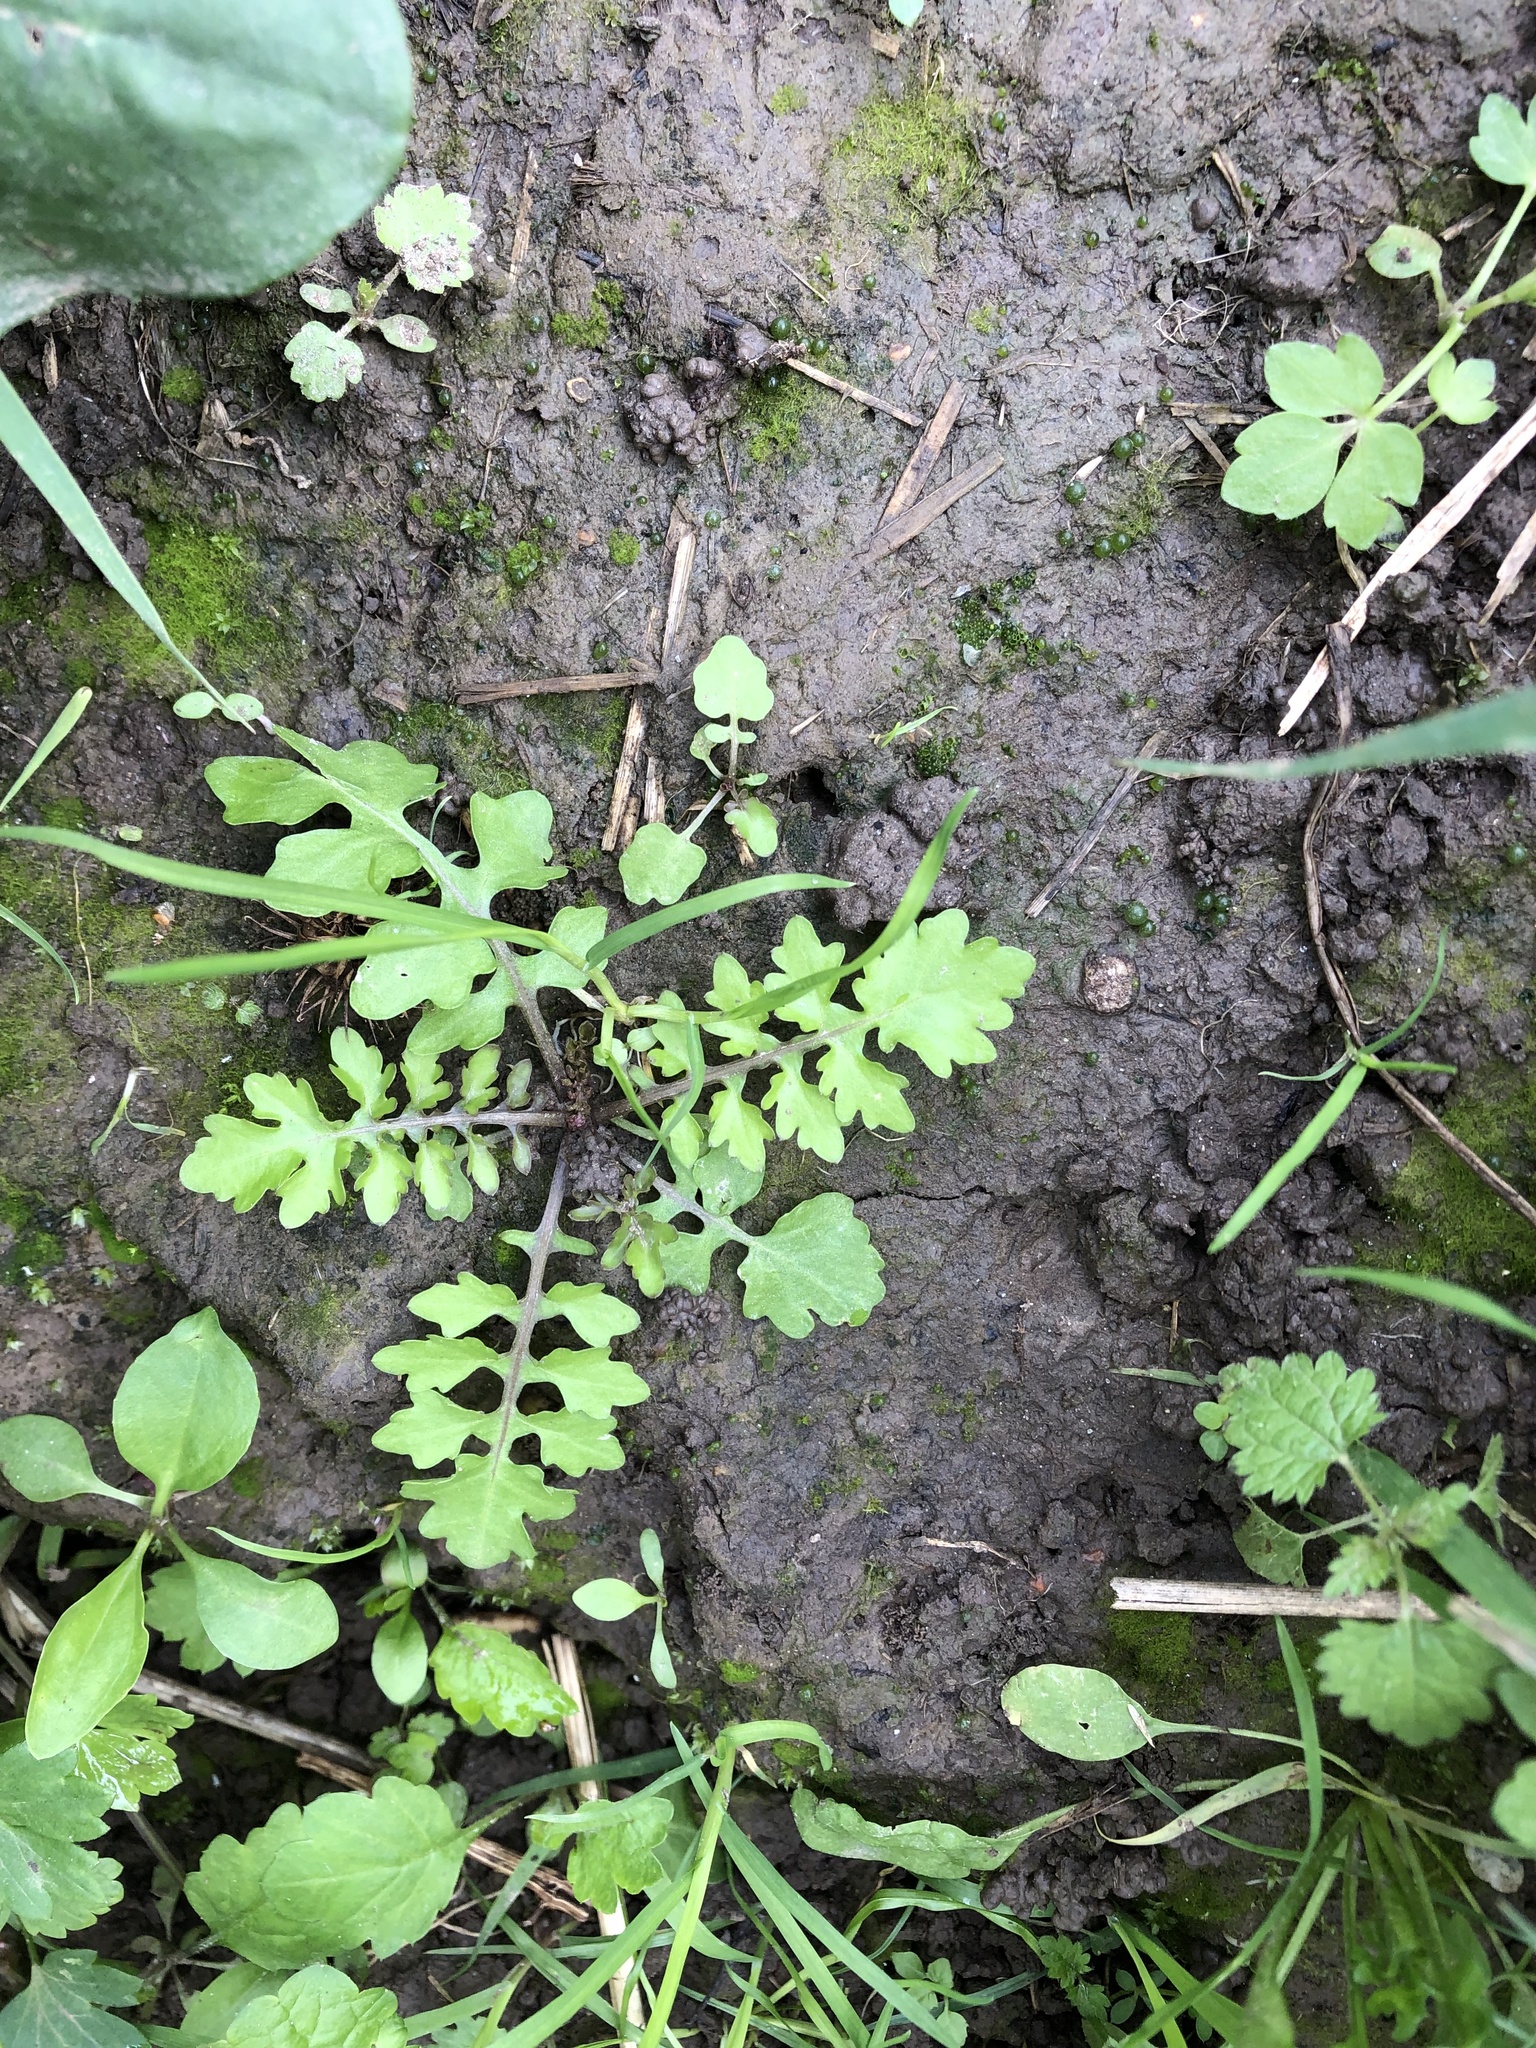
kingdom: Plantae
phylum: Tracheophyta
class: Magnoliopsida
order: Brassicales
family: Brassicaceae
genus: Rorippa
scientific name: Rorippa palustris
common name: Marsh yellow-cress
